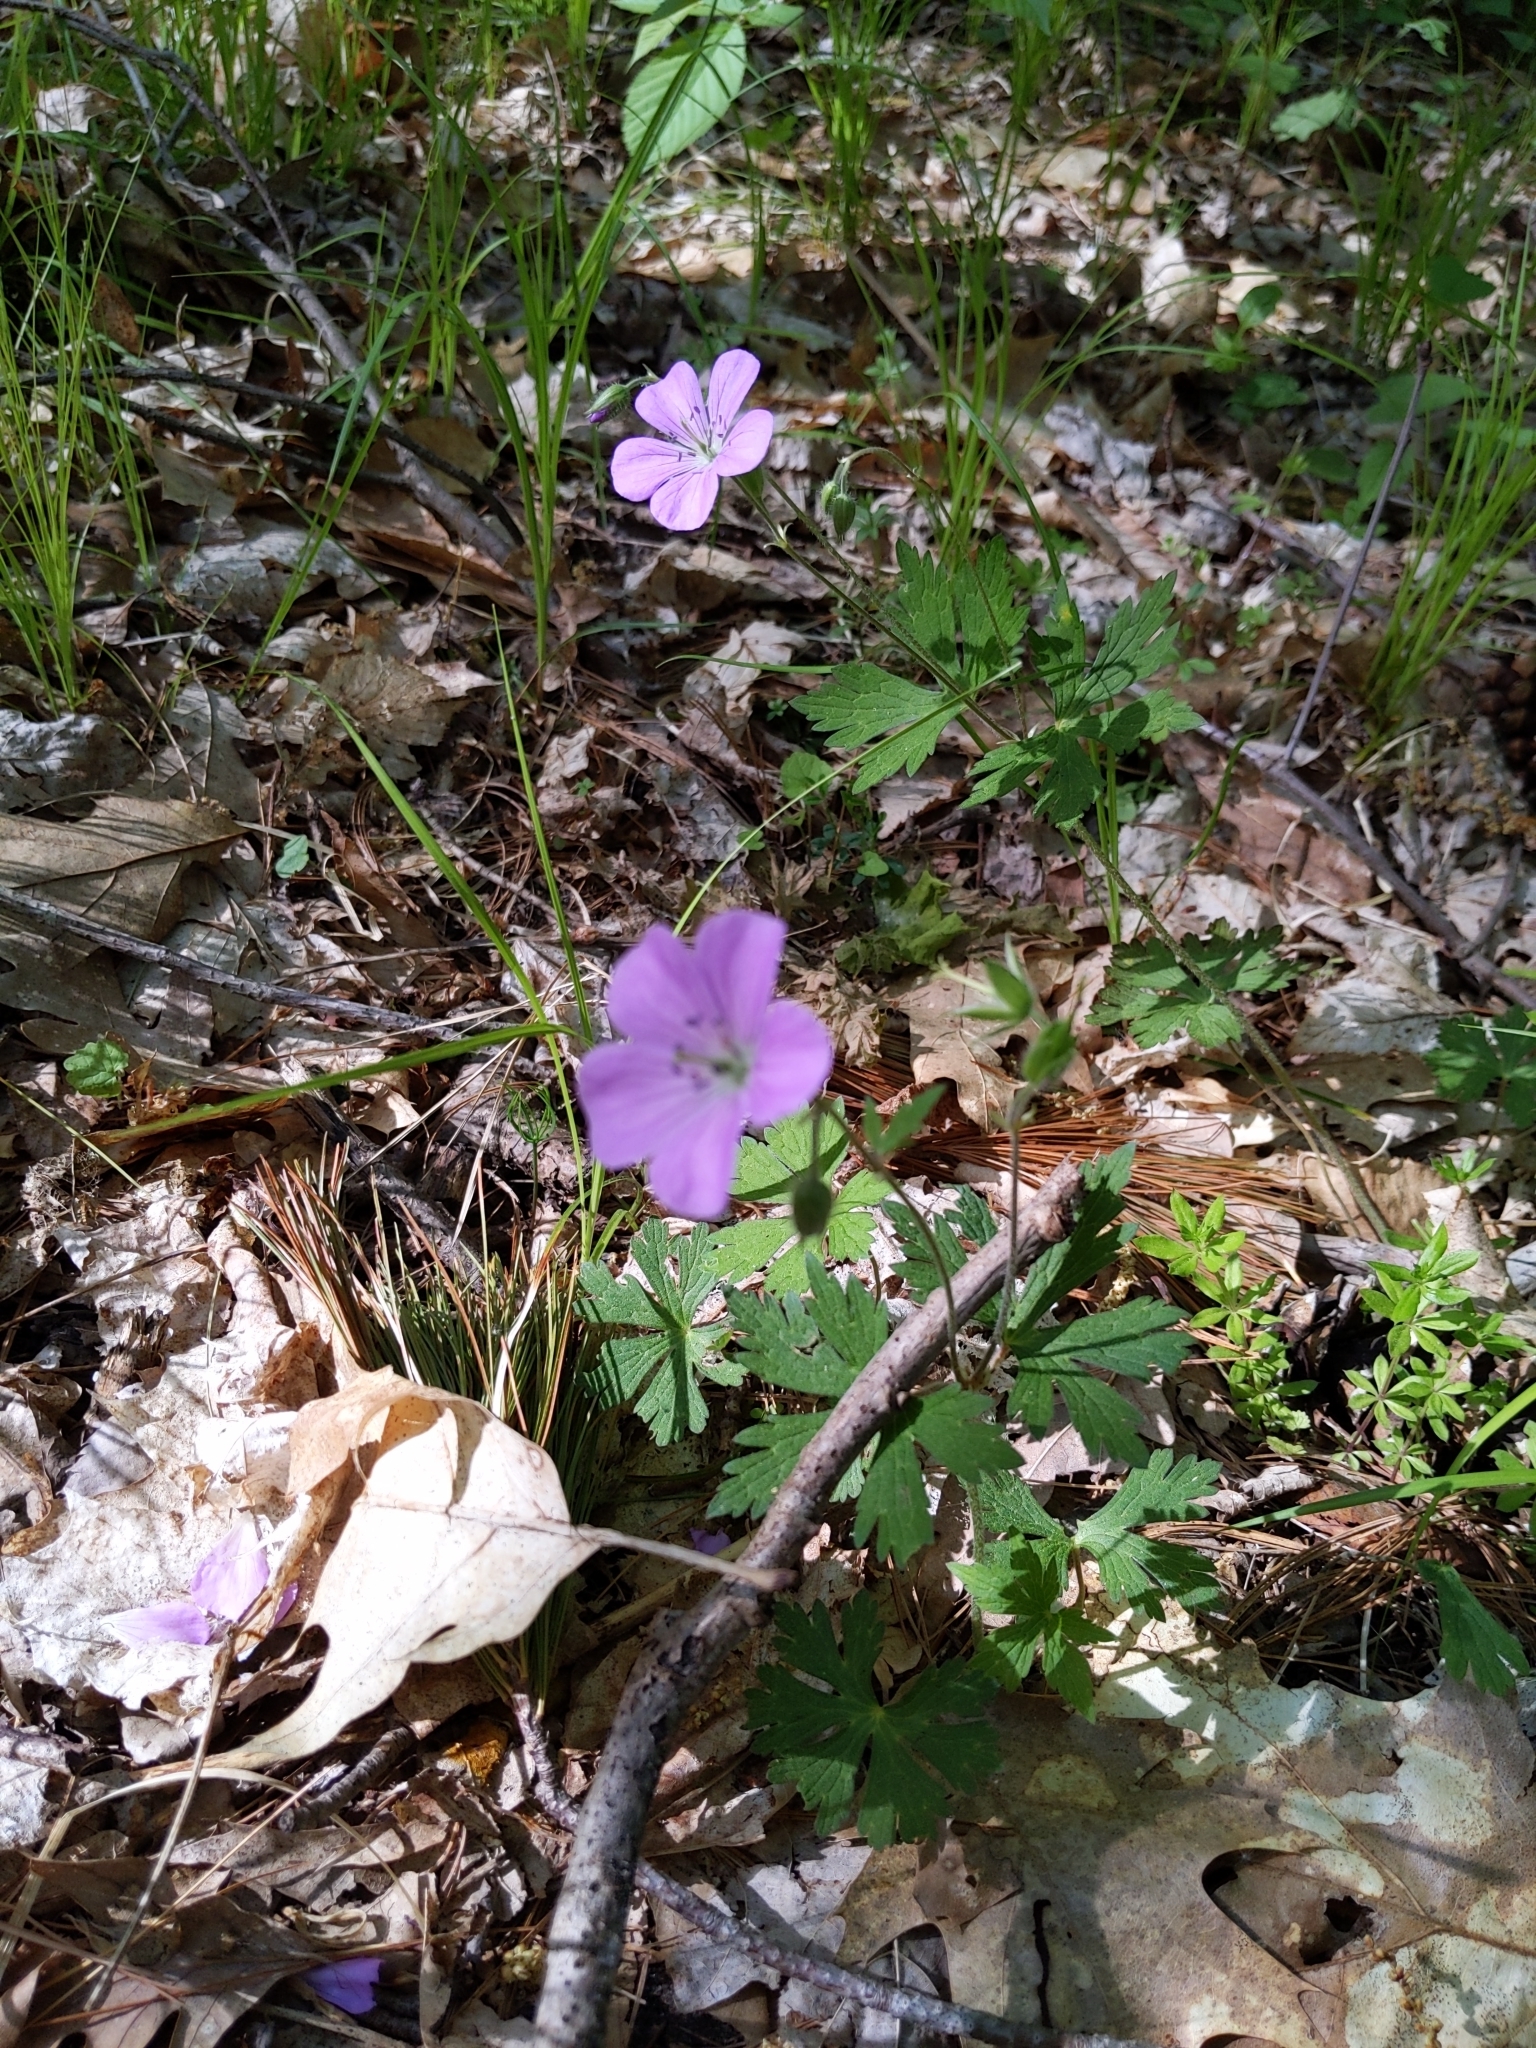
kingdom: Plantae
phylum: Tracheophyta
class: Magnoliopsida
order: Geraniales
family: Geraniaceae
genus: Geranium
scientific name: Geranium maculatum
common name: Spotted geranium
